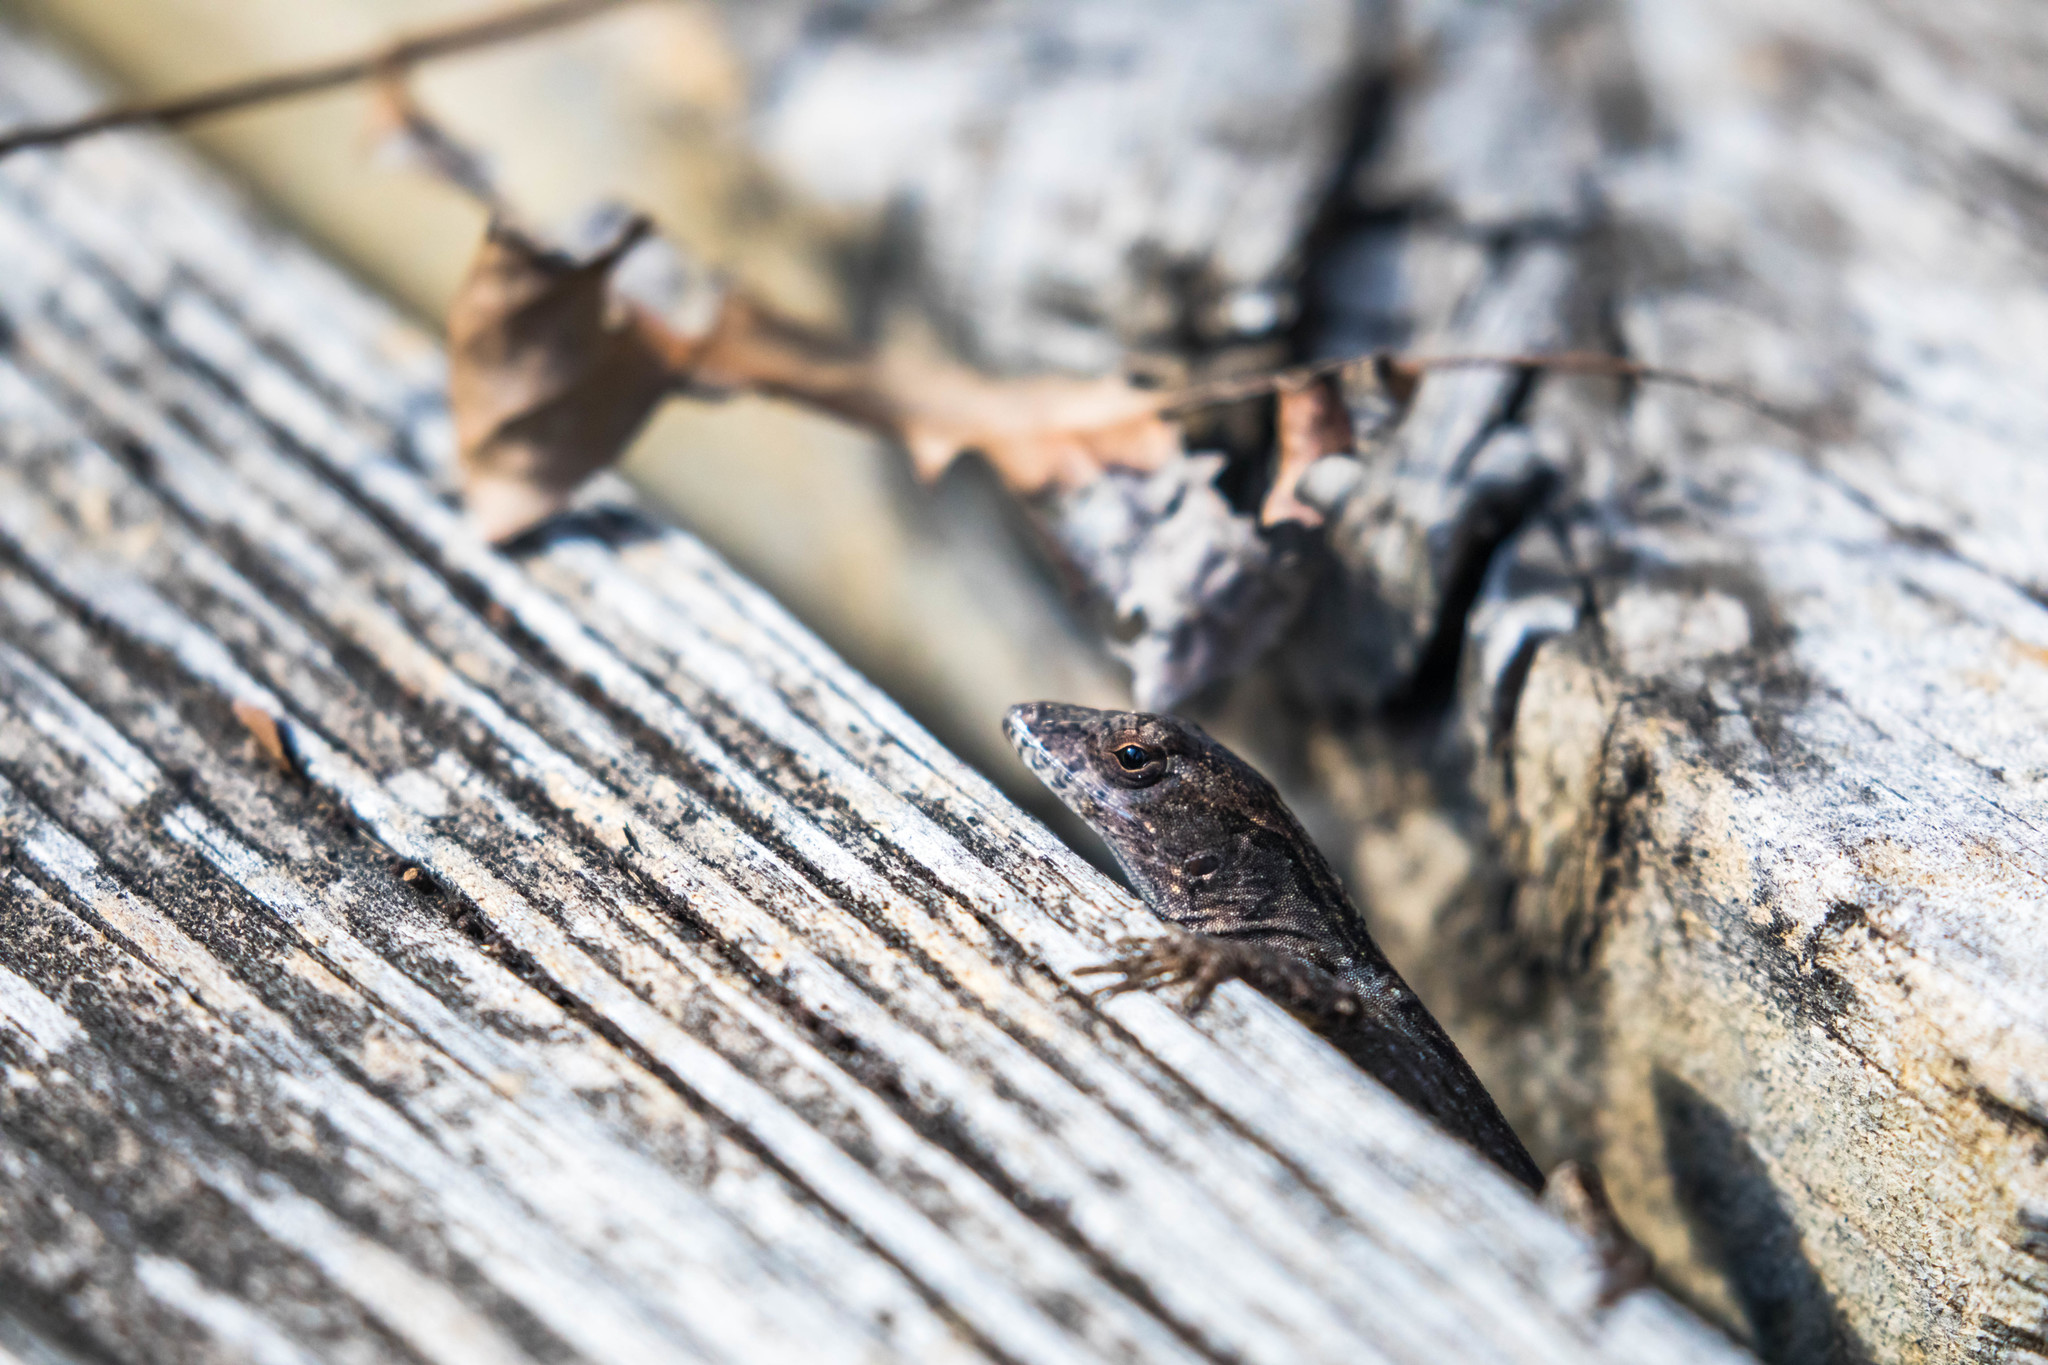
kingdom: Animalia
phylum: Chordata
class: Squamata
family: Dactyloidae
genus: Anolis
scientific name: Anolis sagrei
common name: Brown anole
